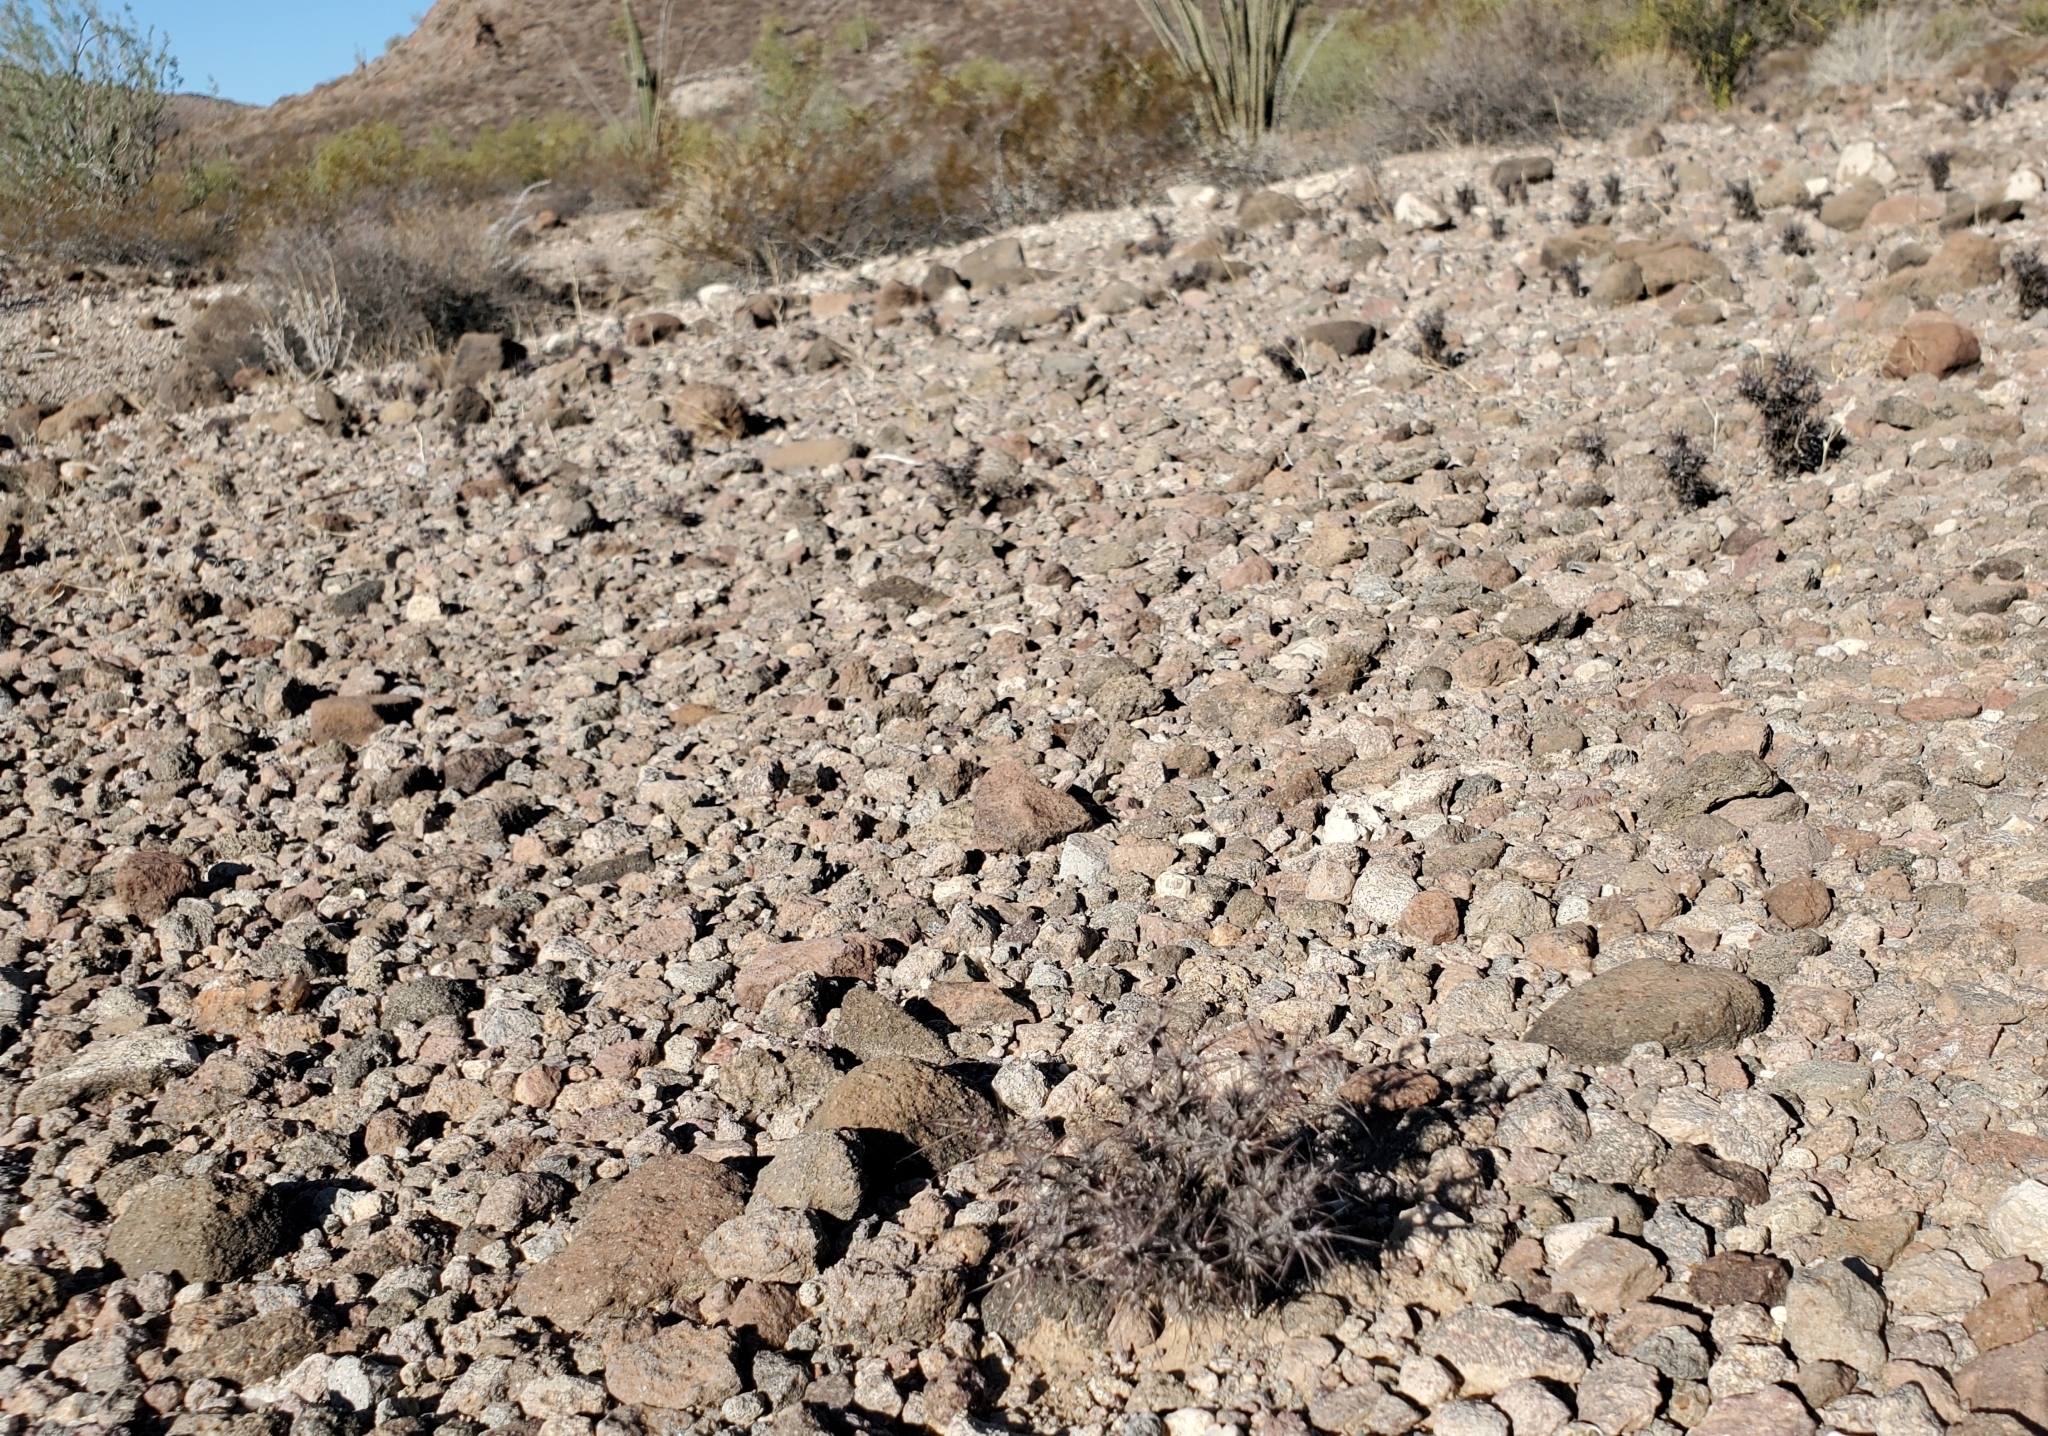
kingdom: Plantae
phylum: Tracheophyta
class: Magnoliopsida
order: Caryophyllales
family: Polygonaceae
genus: Chorizanthe
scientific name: Chorizanthe rigida
